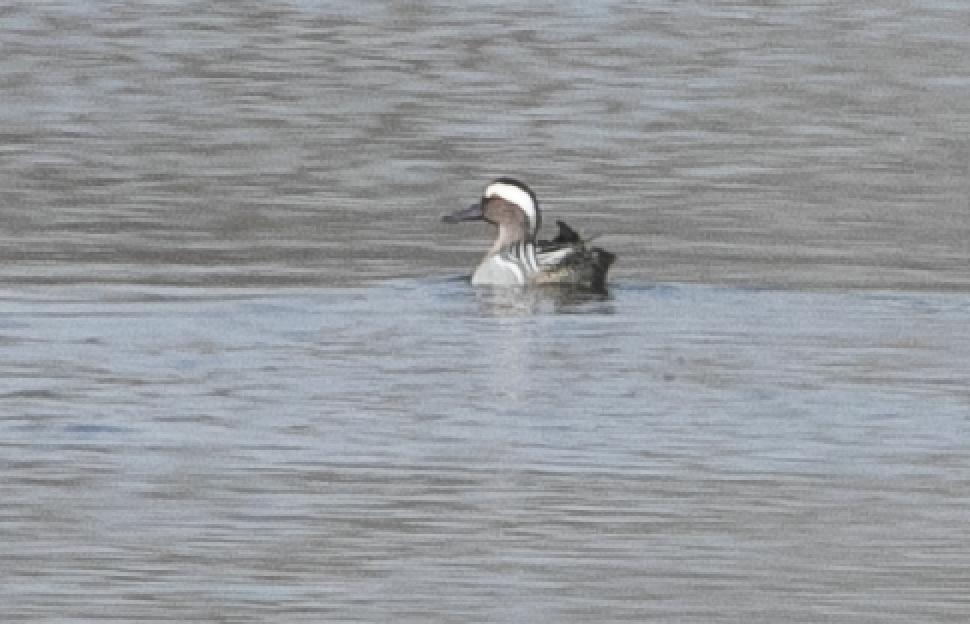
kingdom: Animalia
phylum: Chordata
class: Aves
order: Anseriformes
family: Anatidae
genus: Spatula
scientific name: Spatula querquedula
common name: Garganey
